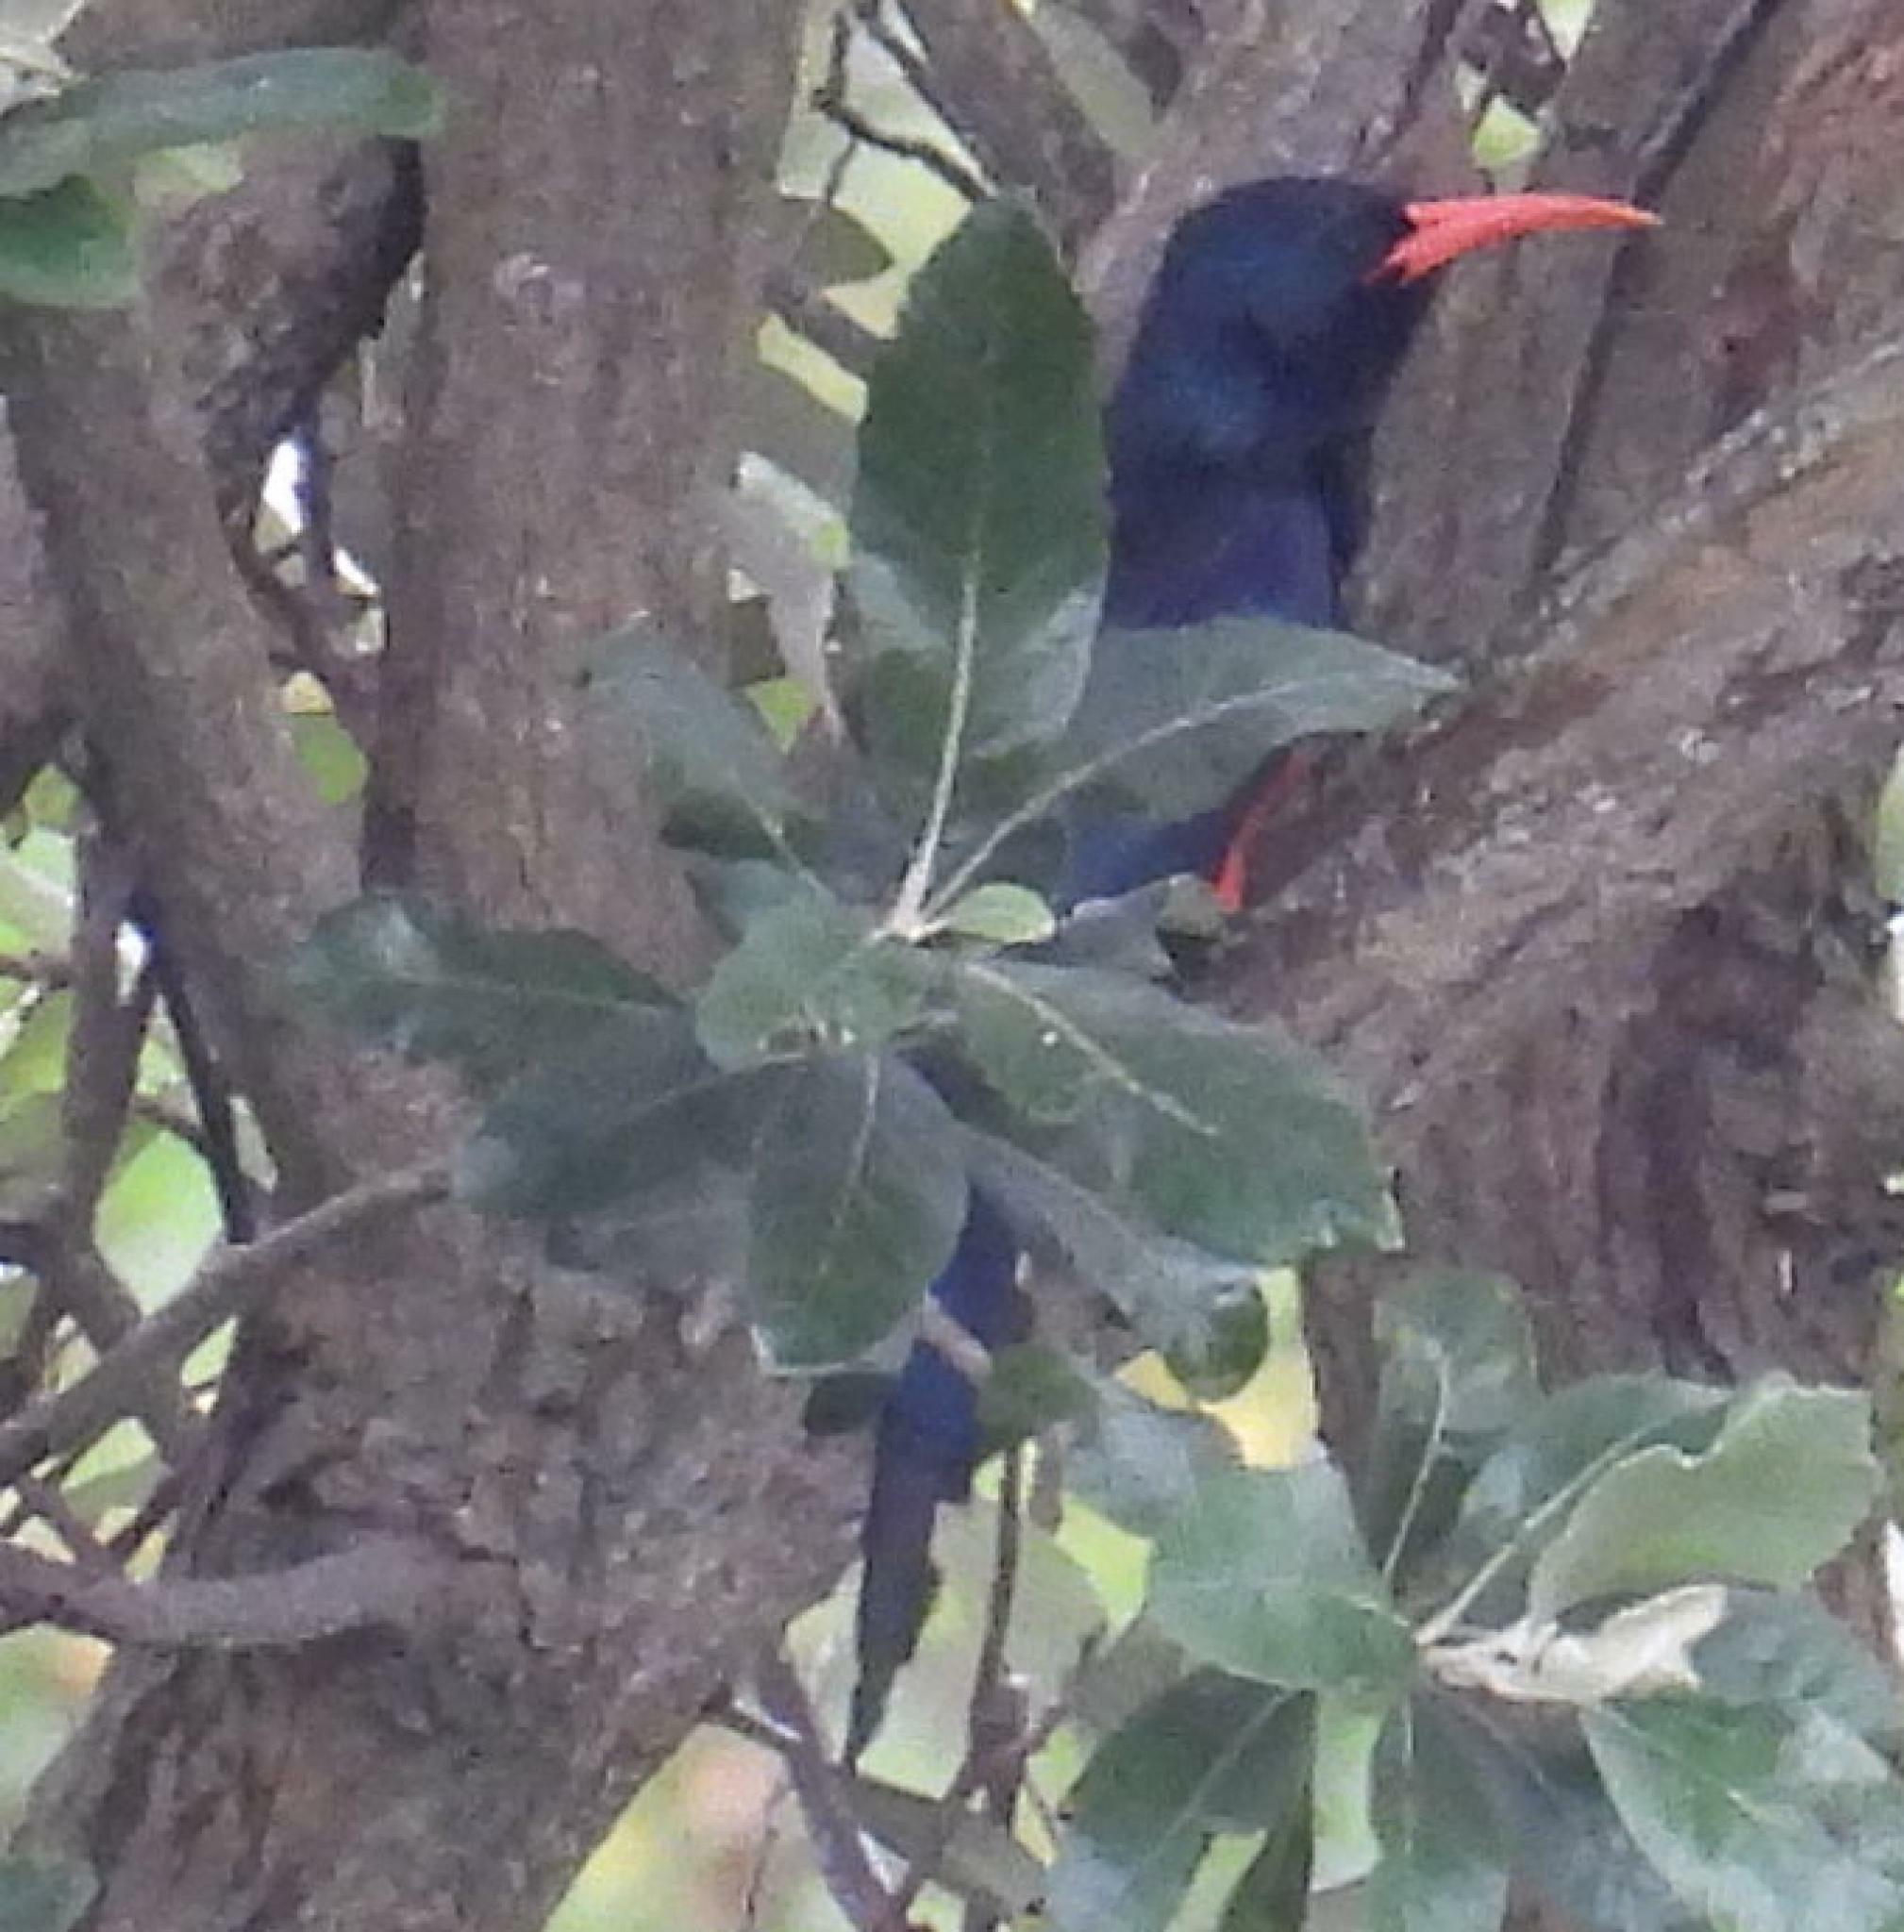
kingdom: Animalia
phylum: Chordata
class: Aves
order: Bucerotiformes
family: Phoeniculidae
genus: Phoeniculus
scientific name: Phoeniculus purpureus
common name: Green woodhoopoe
